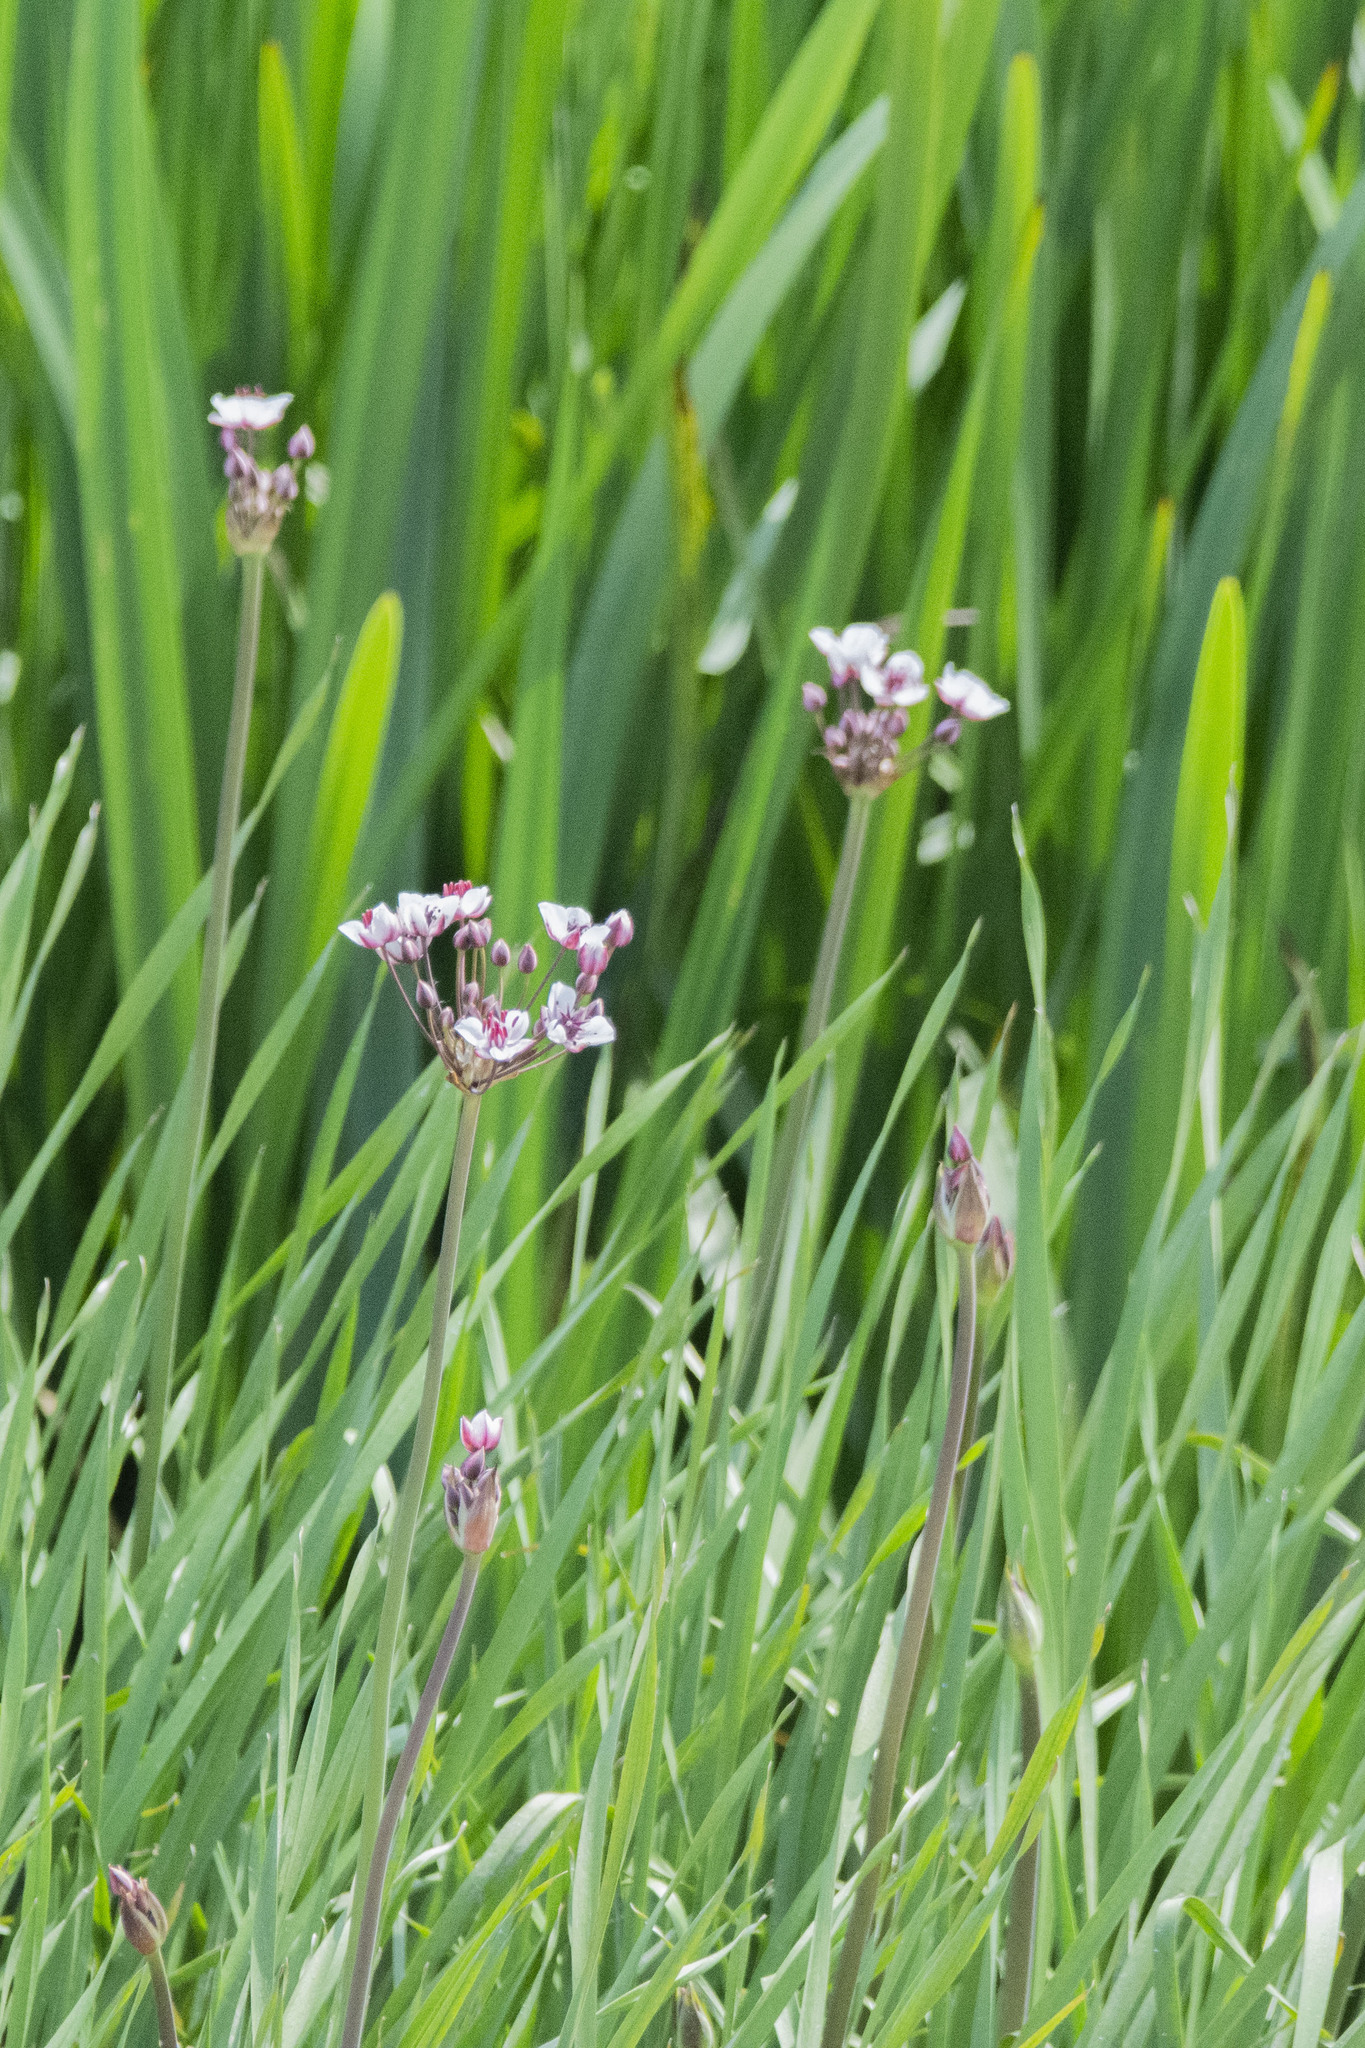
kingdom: Plantae
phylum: Tracheophyta
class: Liliopsida
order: Alismatales
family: Butomaceae
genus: Butomus
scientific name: Butomus umbellatus
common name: Flowering-rush
